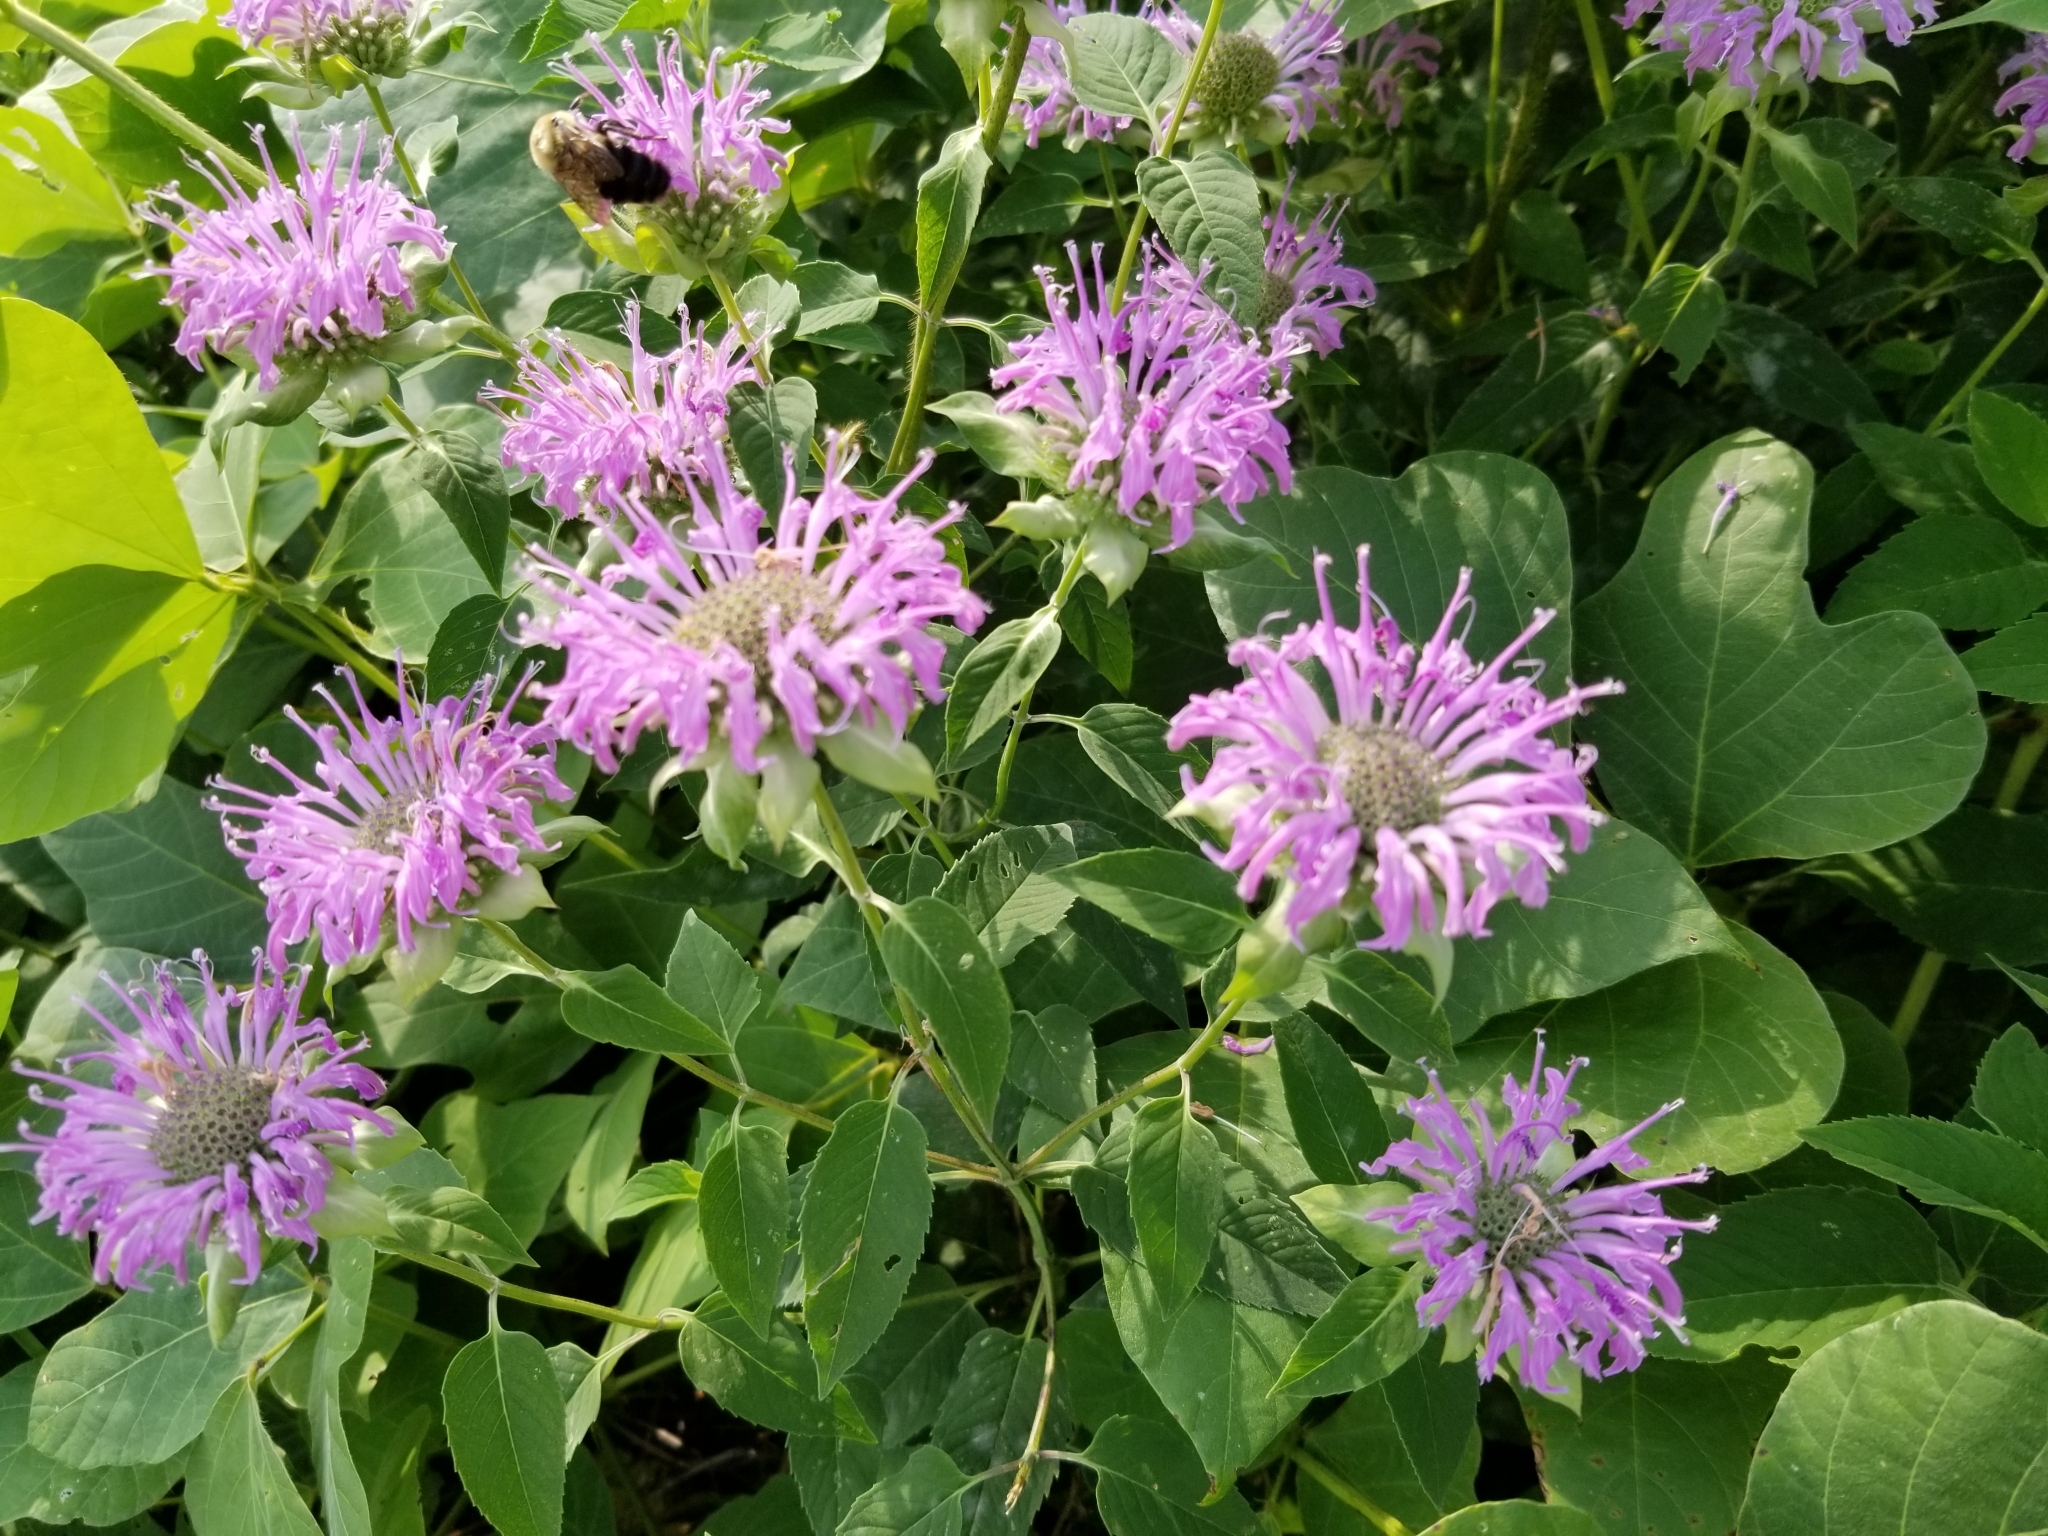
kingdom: Plantae
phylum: Tracheophyta
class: Magnoliopsida
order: Lamiales
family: Lamiaceae
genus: Monarda
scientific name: Monarda fistulosa
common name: Purple beebalm
